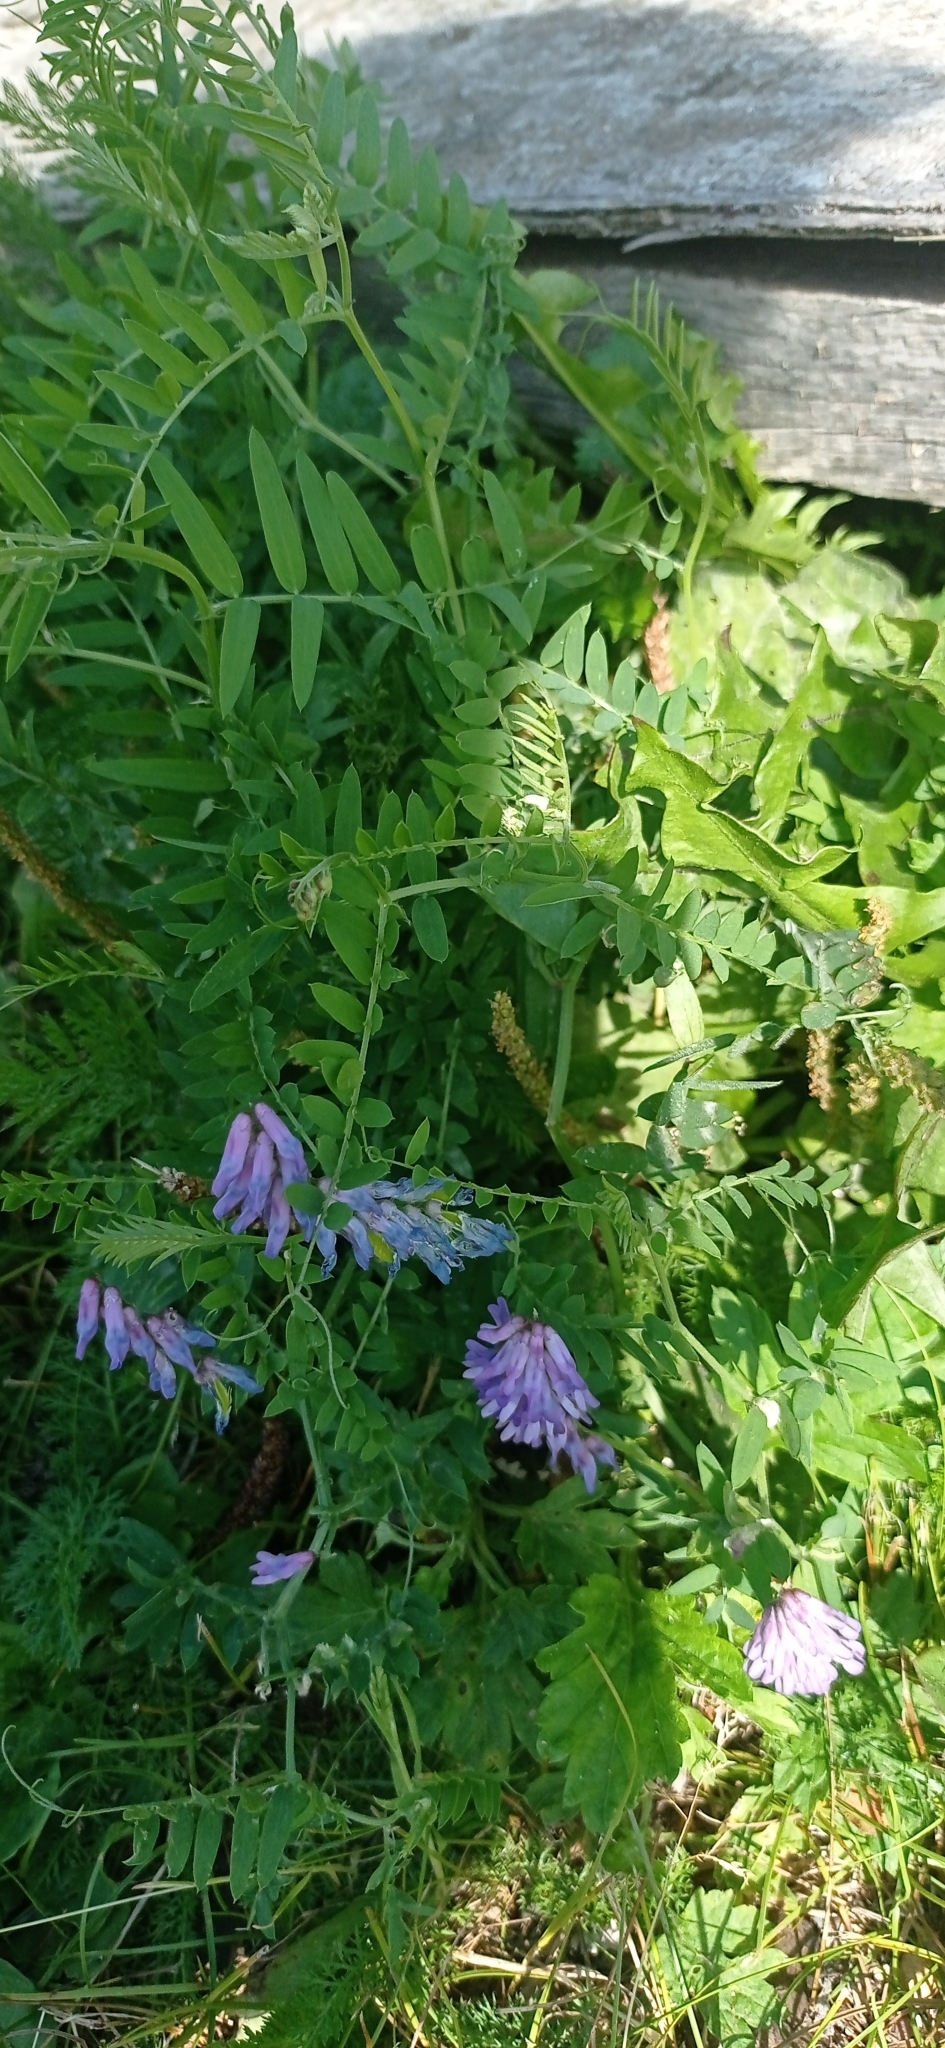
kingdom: Plantae
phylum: Tracheophyta
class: Magnoliopsida
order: Fabales
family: Fabaceae
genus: Vicia
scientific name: Vicia cracca
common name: Bird vetch
